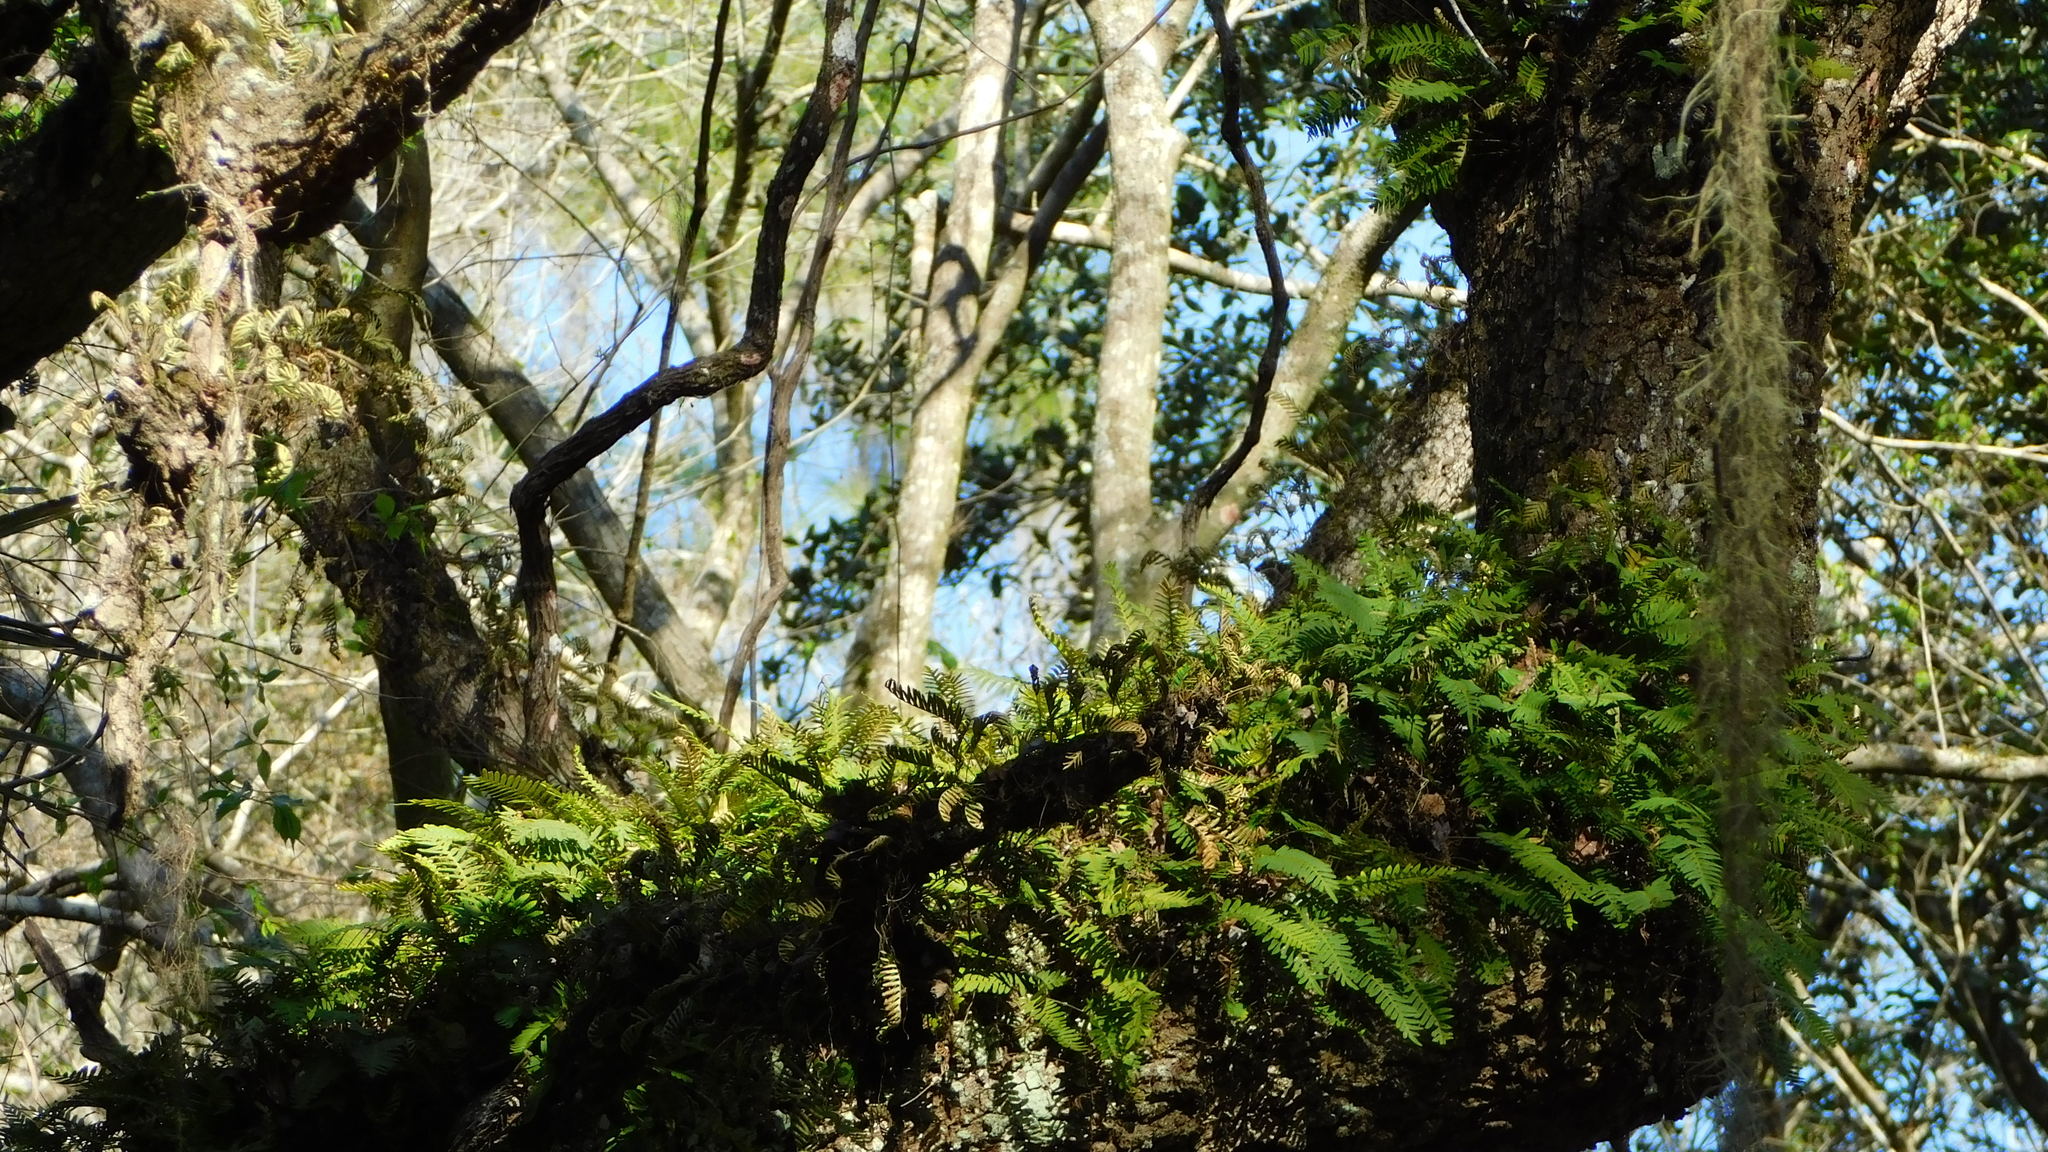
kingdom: Plantae
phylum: Tracheophyta
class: Polypodiopsida
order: Polypodiales
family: Polypodiaceae
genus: Pleopeltis
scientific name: Pleopeltis michauxiana
